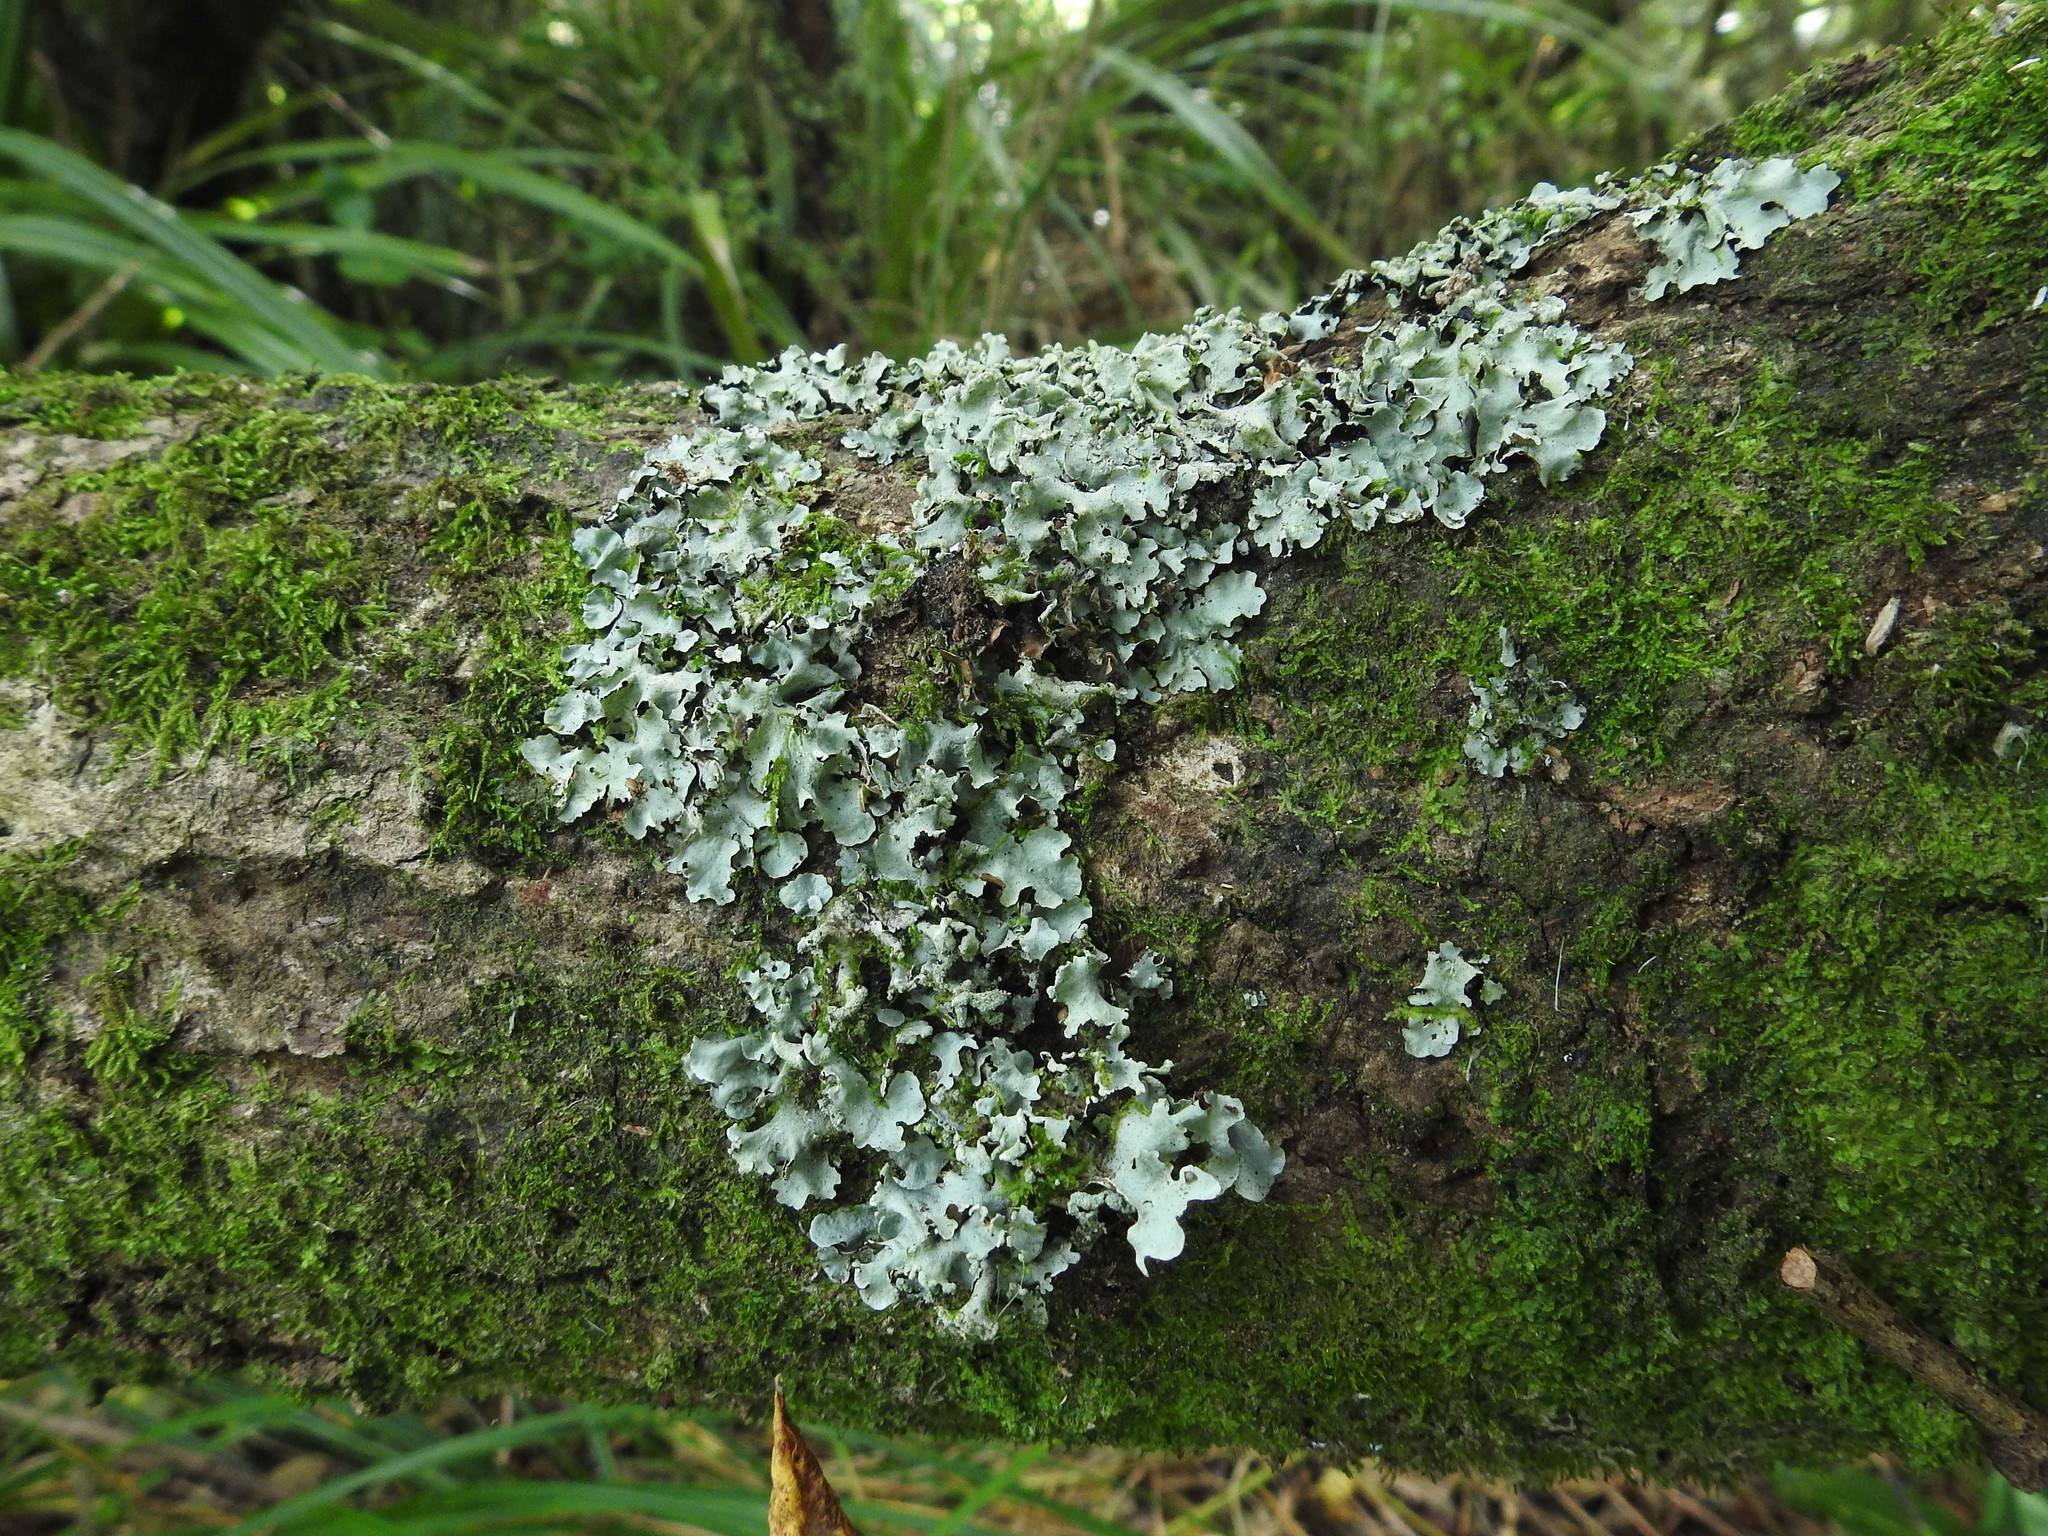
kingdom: Fungi
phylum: Ascomycota
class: Lecanoromycetes
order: Lecanorales
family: Parmeliaceae
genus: Parmotrema
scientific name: Parmotrema perlatum
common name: Black stone flower
